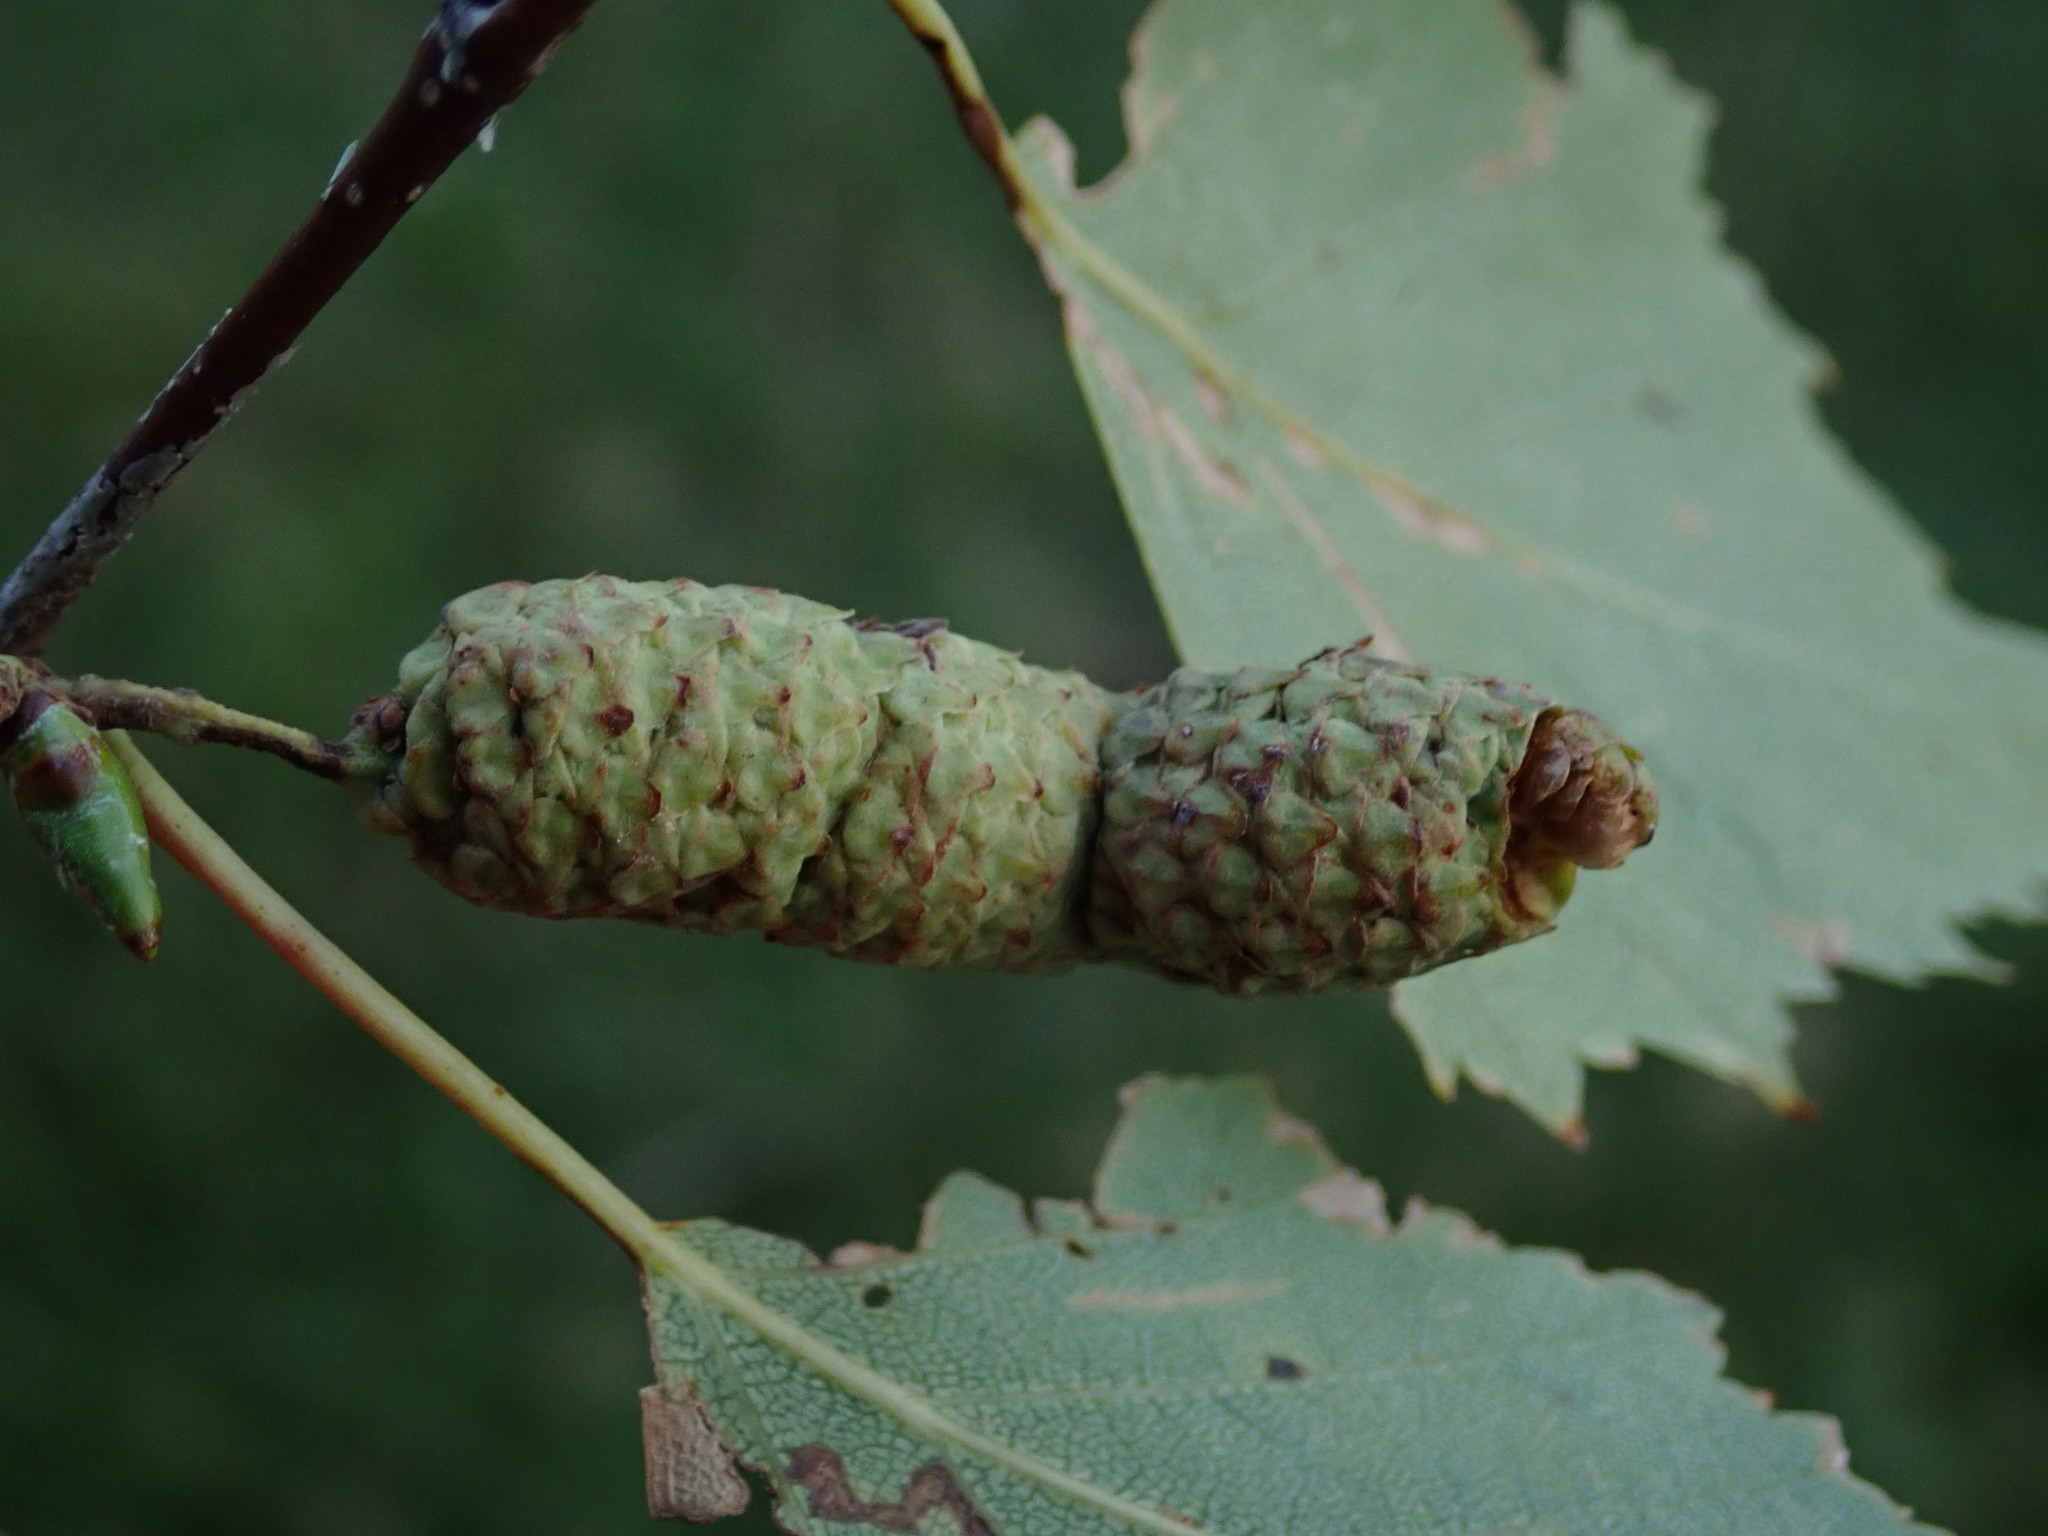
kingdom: Plantae
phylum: Tracheophyta
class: Magnoliopsida
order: Fagales
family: Betulaceae
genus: Betula
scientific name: Betula pendula
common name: Silver birch
